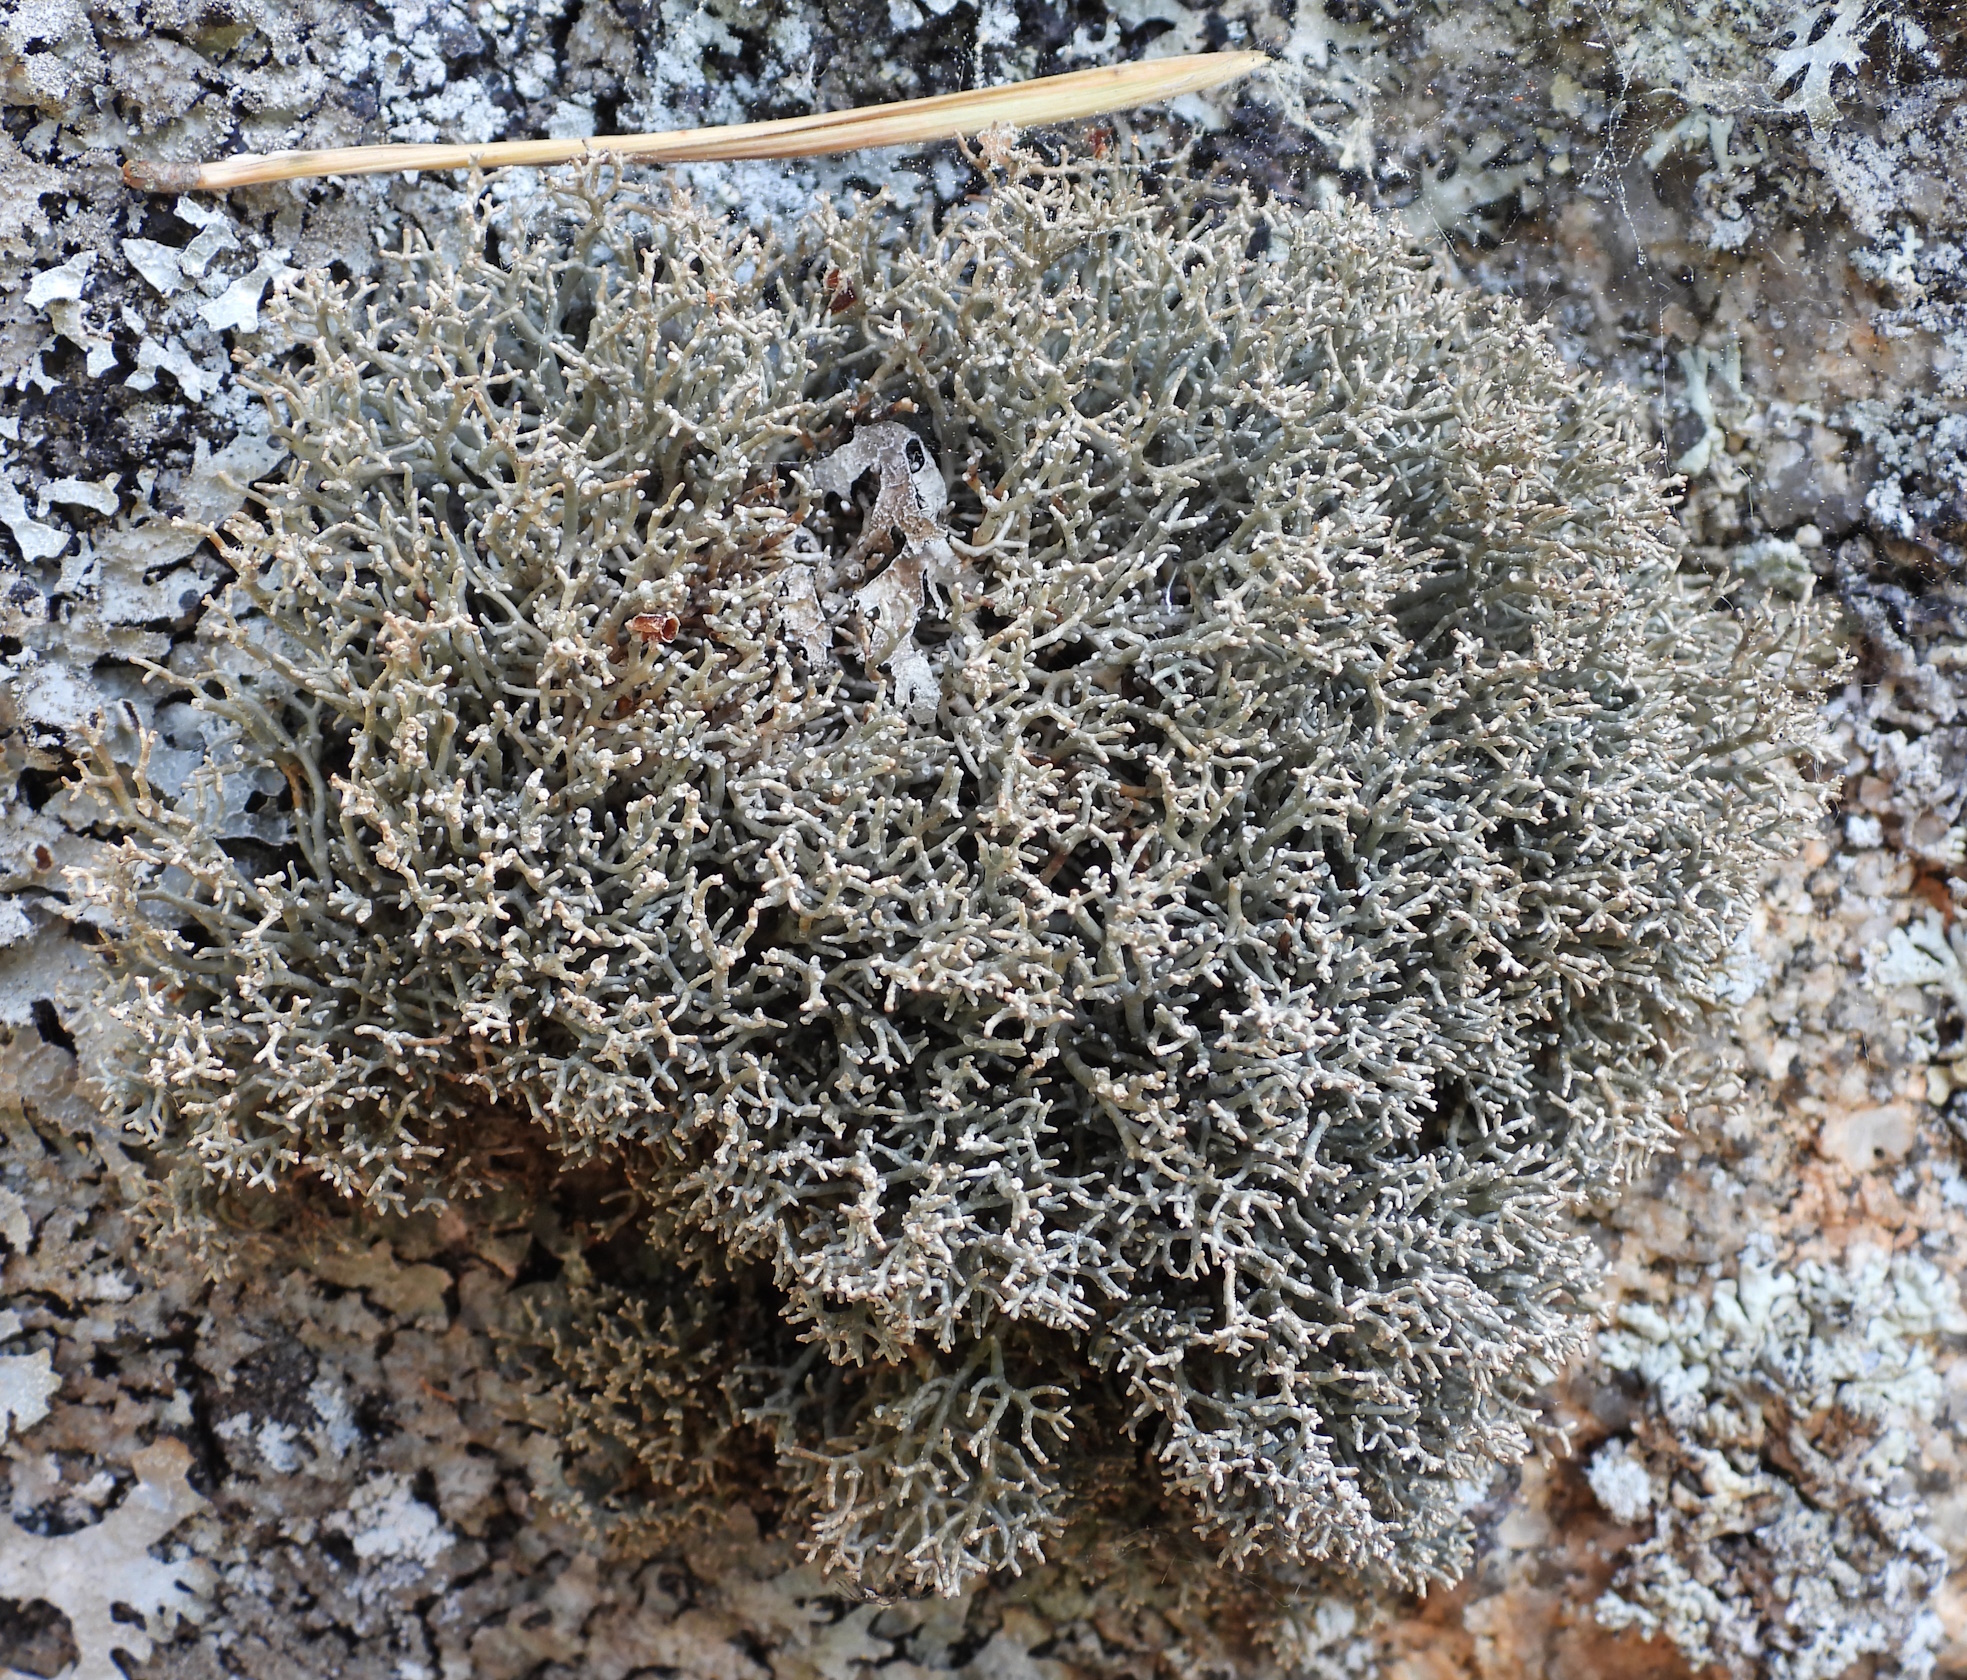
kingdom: Fungi
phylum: Ascomycota
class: Lecanoromycetes
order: Lecanorales
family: Sphaerophoraceae
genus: Sphaerophorus
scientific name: Sphaerophorus fragilis
